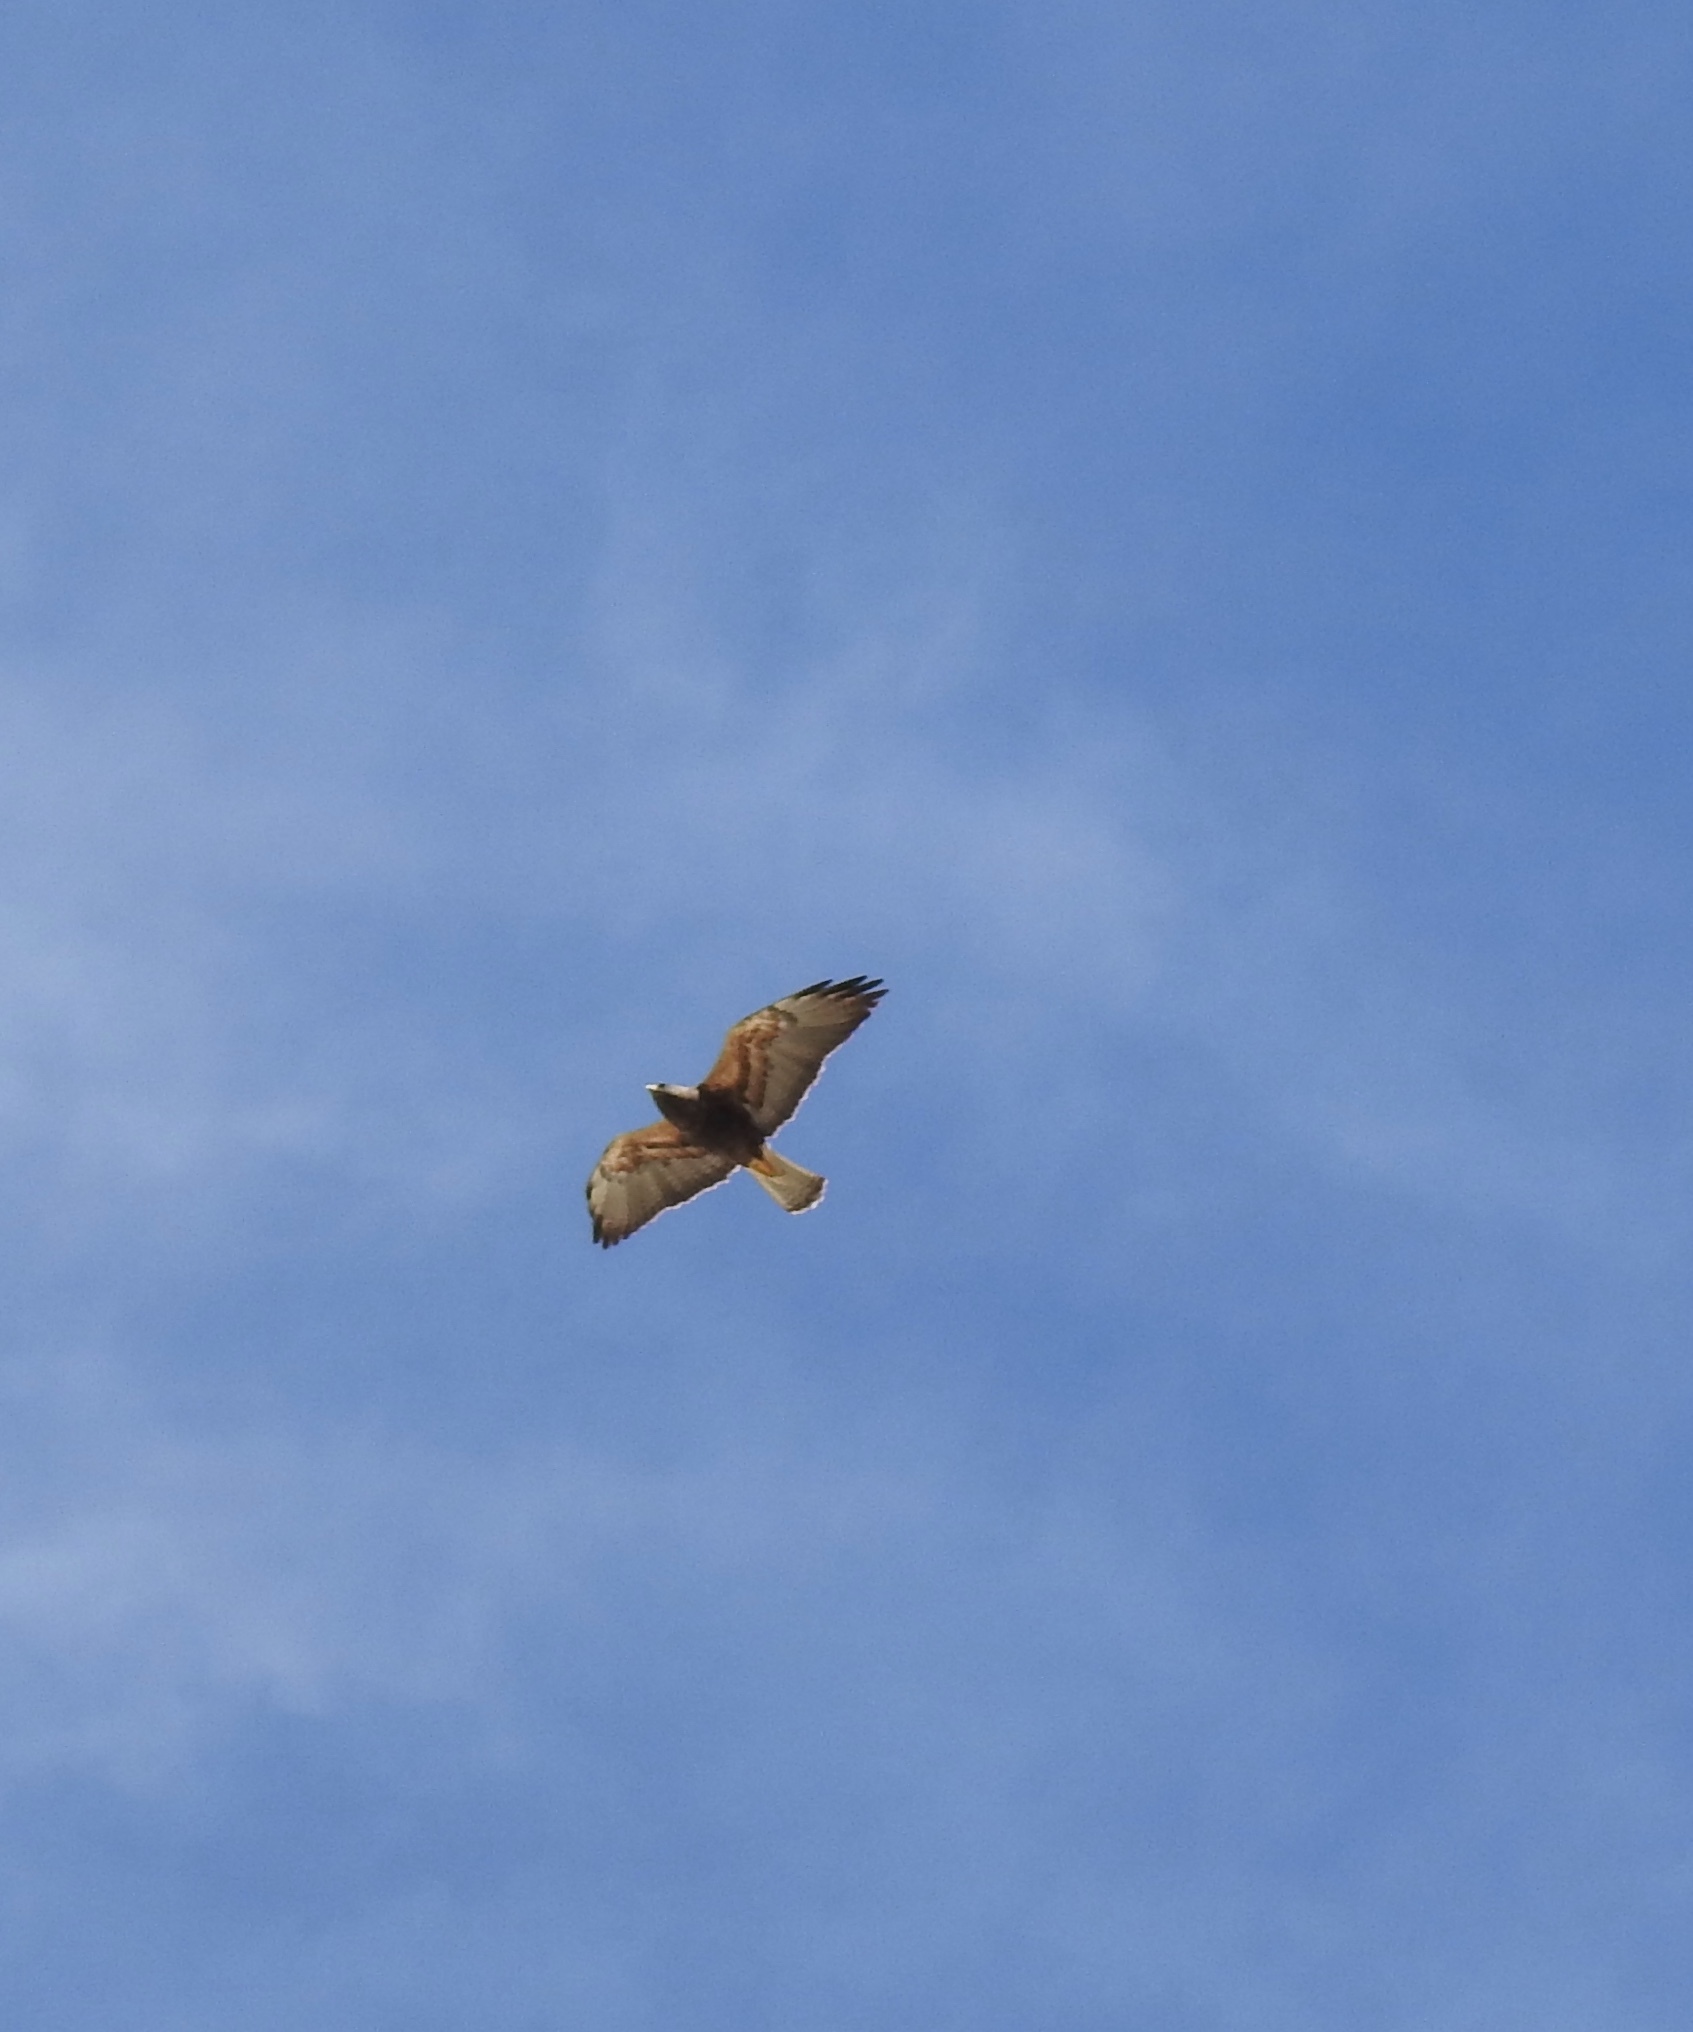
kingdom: Animalia
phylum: Chordata
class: Aves
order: Accipitriformes
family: Accipitridae
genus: Buteo
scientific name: Buteo swainsoni
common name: Swainson's hawk
